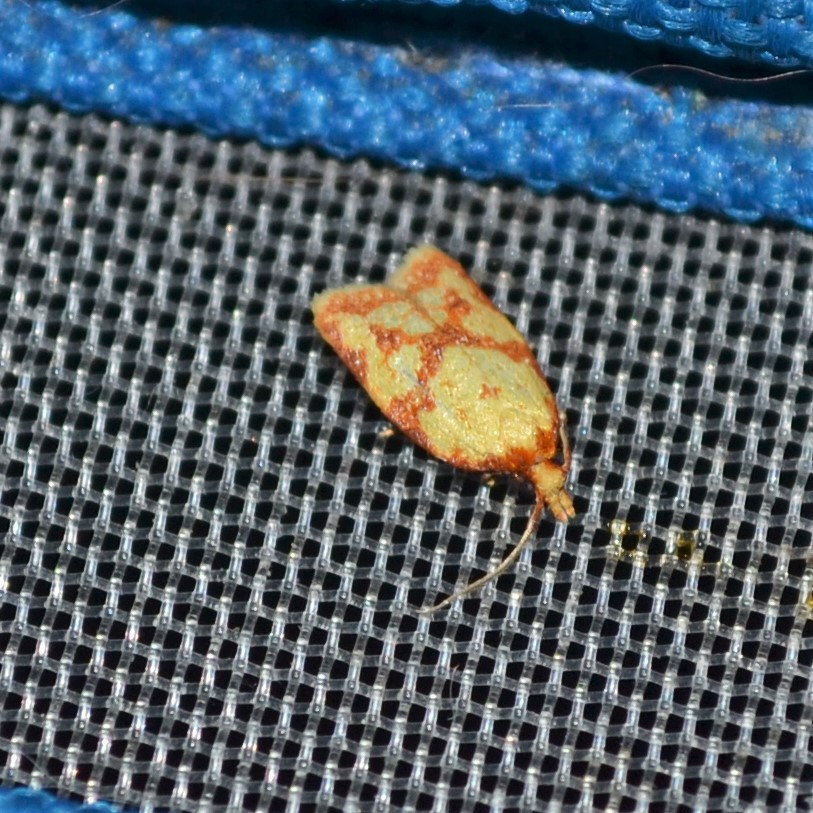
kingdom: Animalia
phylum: Arthropoda
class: Insecta
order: Lepidoptera
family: Tortricidae
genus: Sparganothis
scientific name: Sparganothis sulfureana
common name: Sparganothis fruitworm moth
